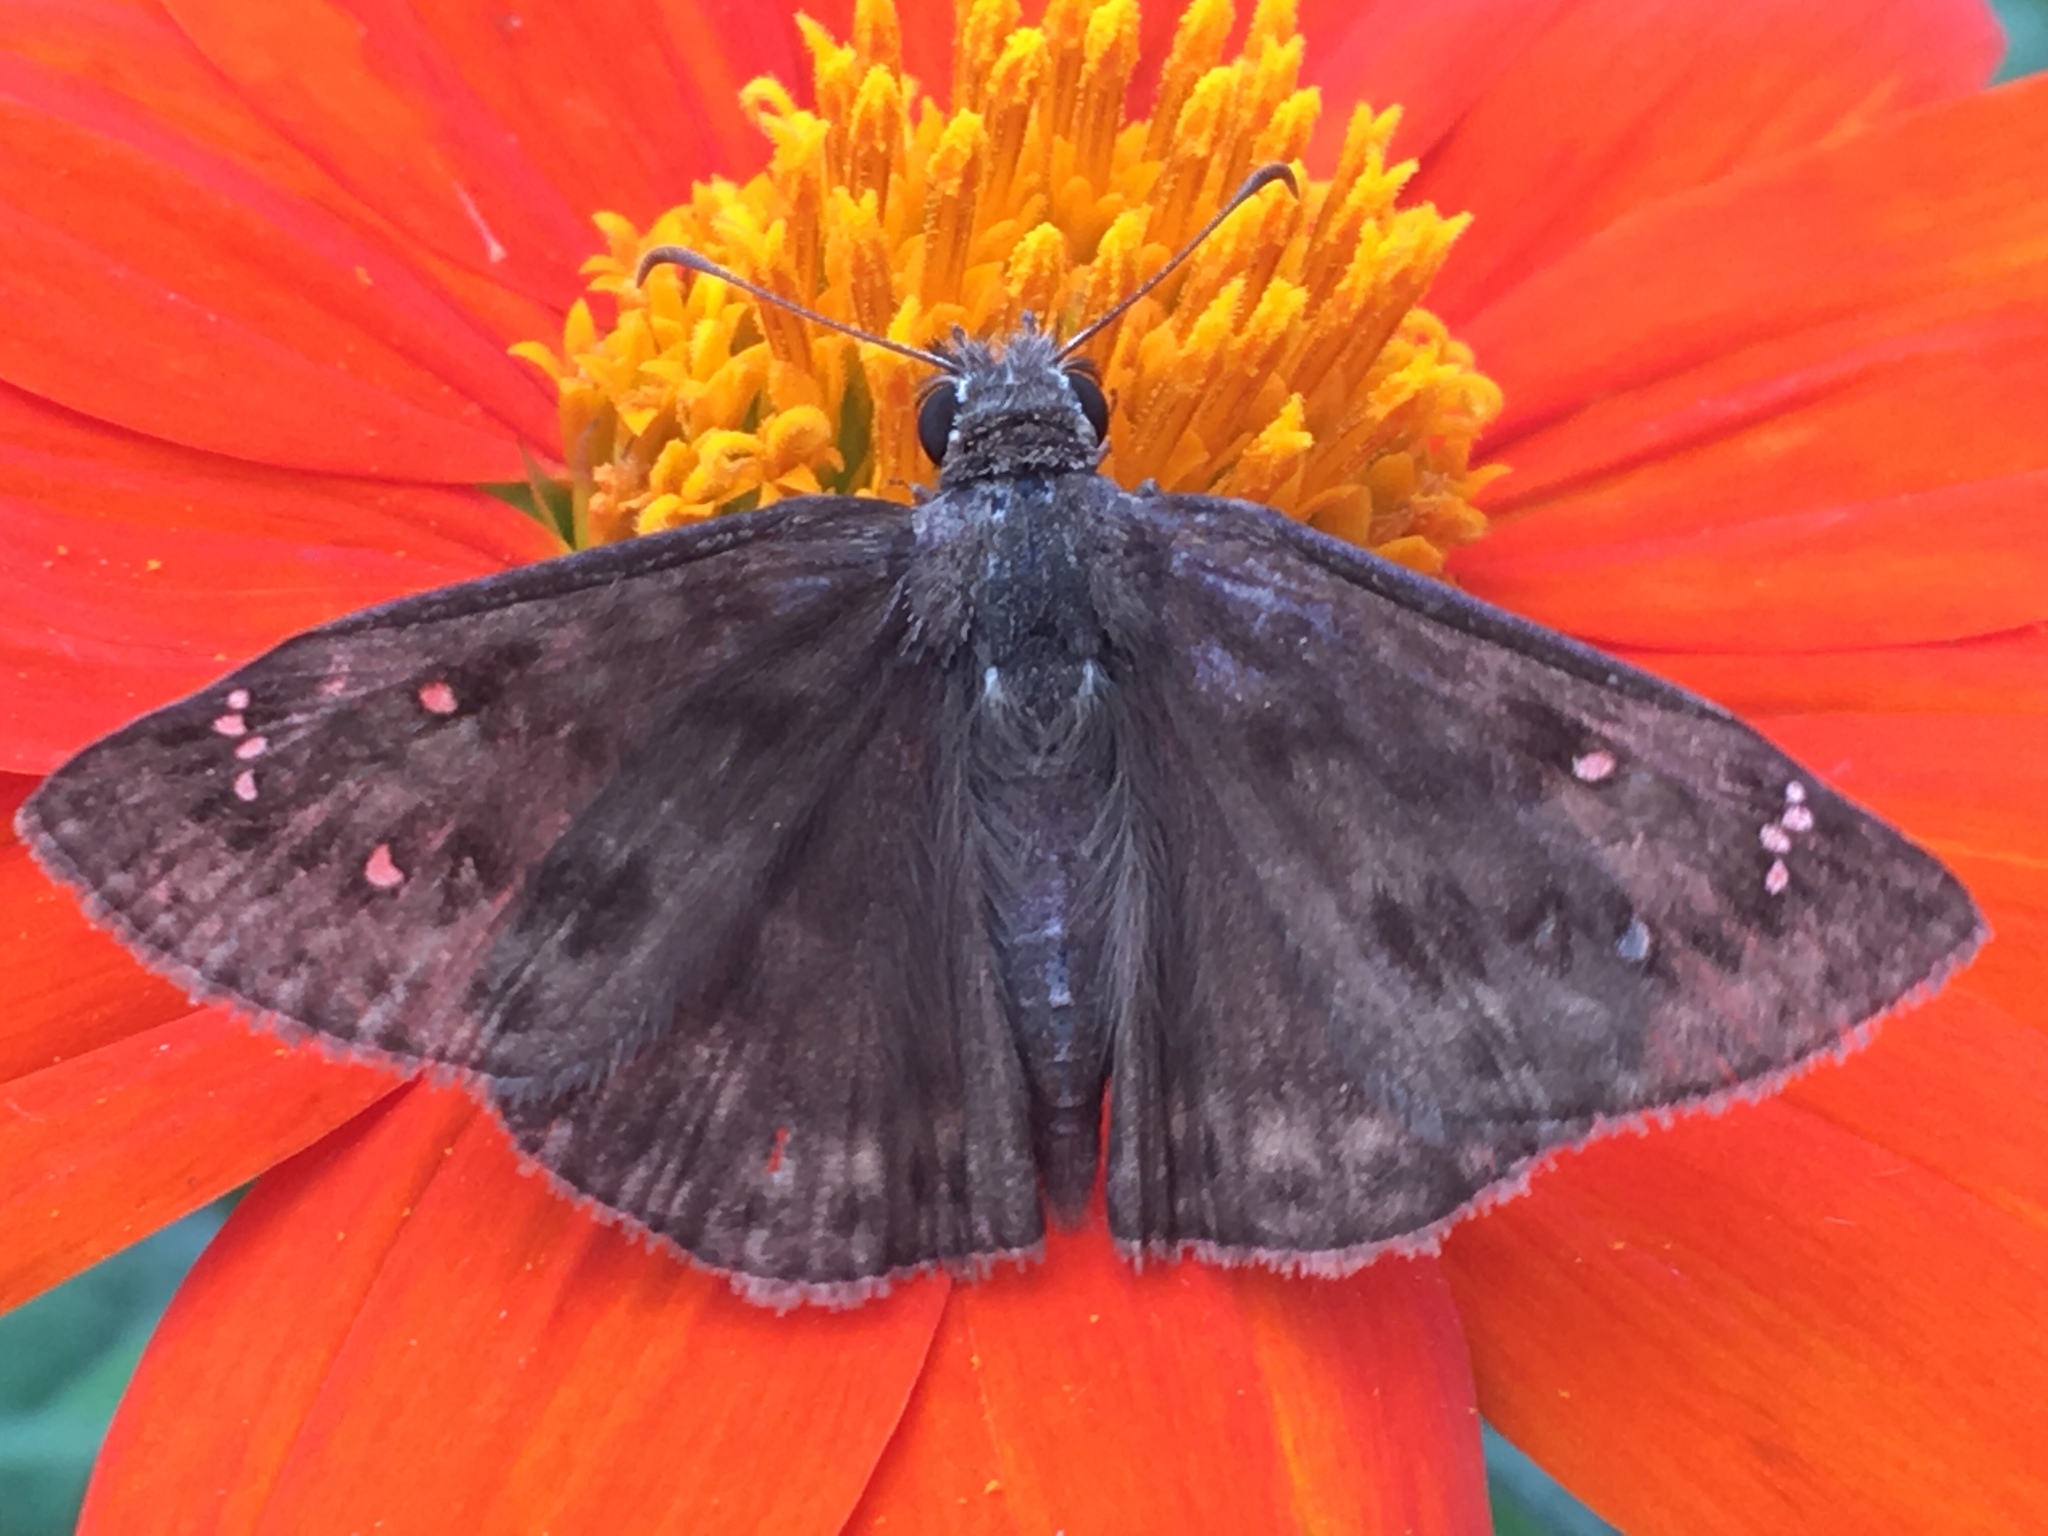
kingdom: Animalia
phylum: Arthropoda
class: Insecta
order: Lepidoptera
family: Hesperiidae
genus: Erynnis
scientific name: Erynnis horatius
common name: Horace's duskywing
